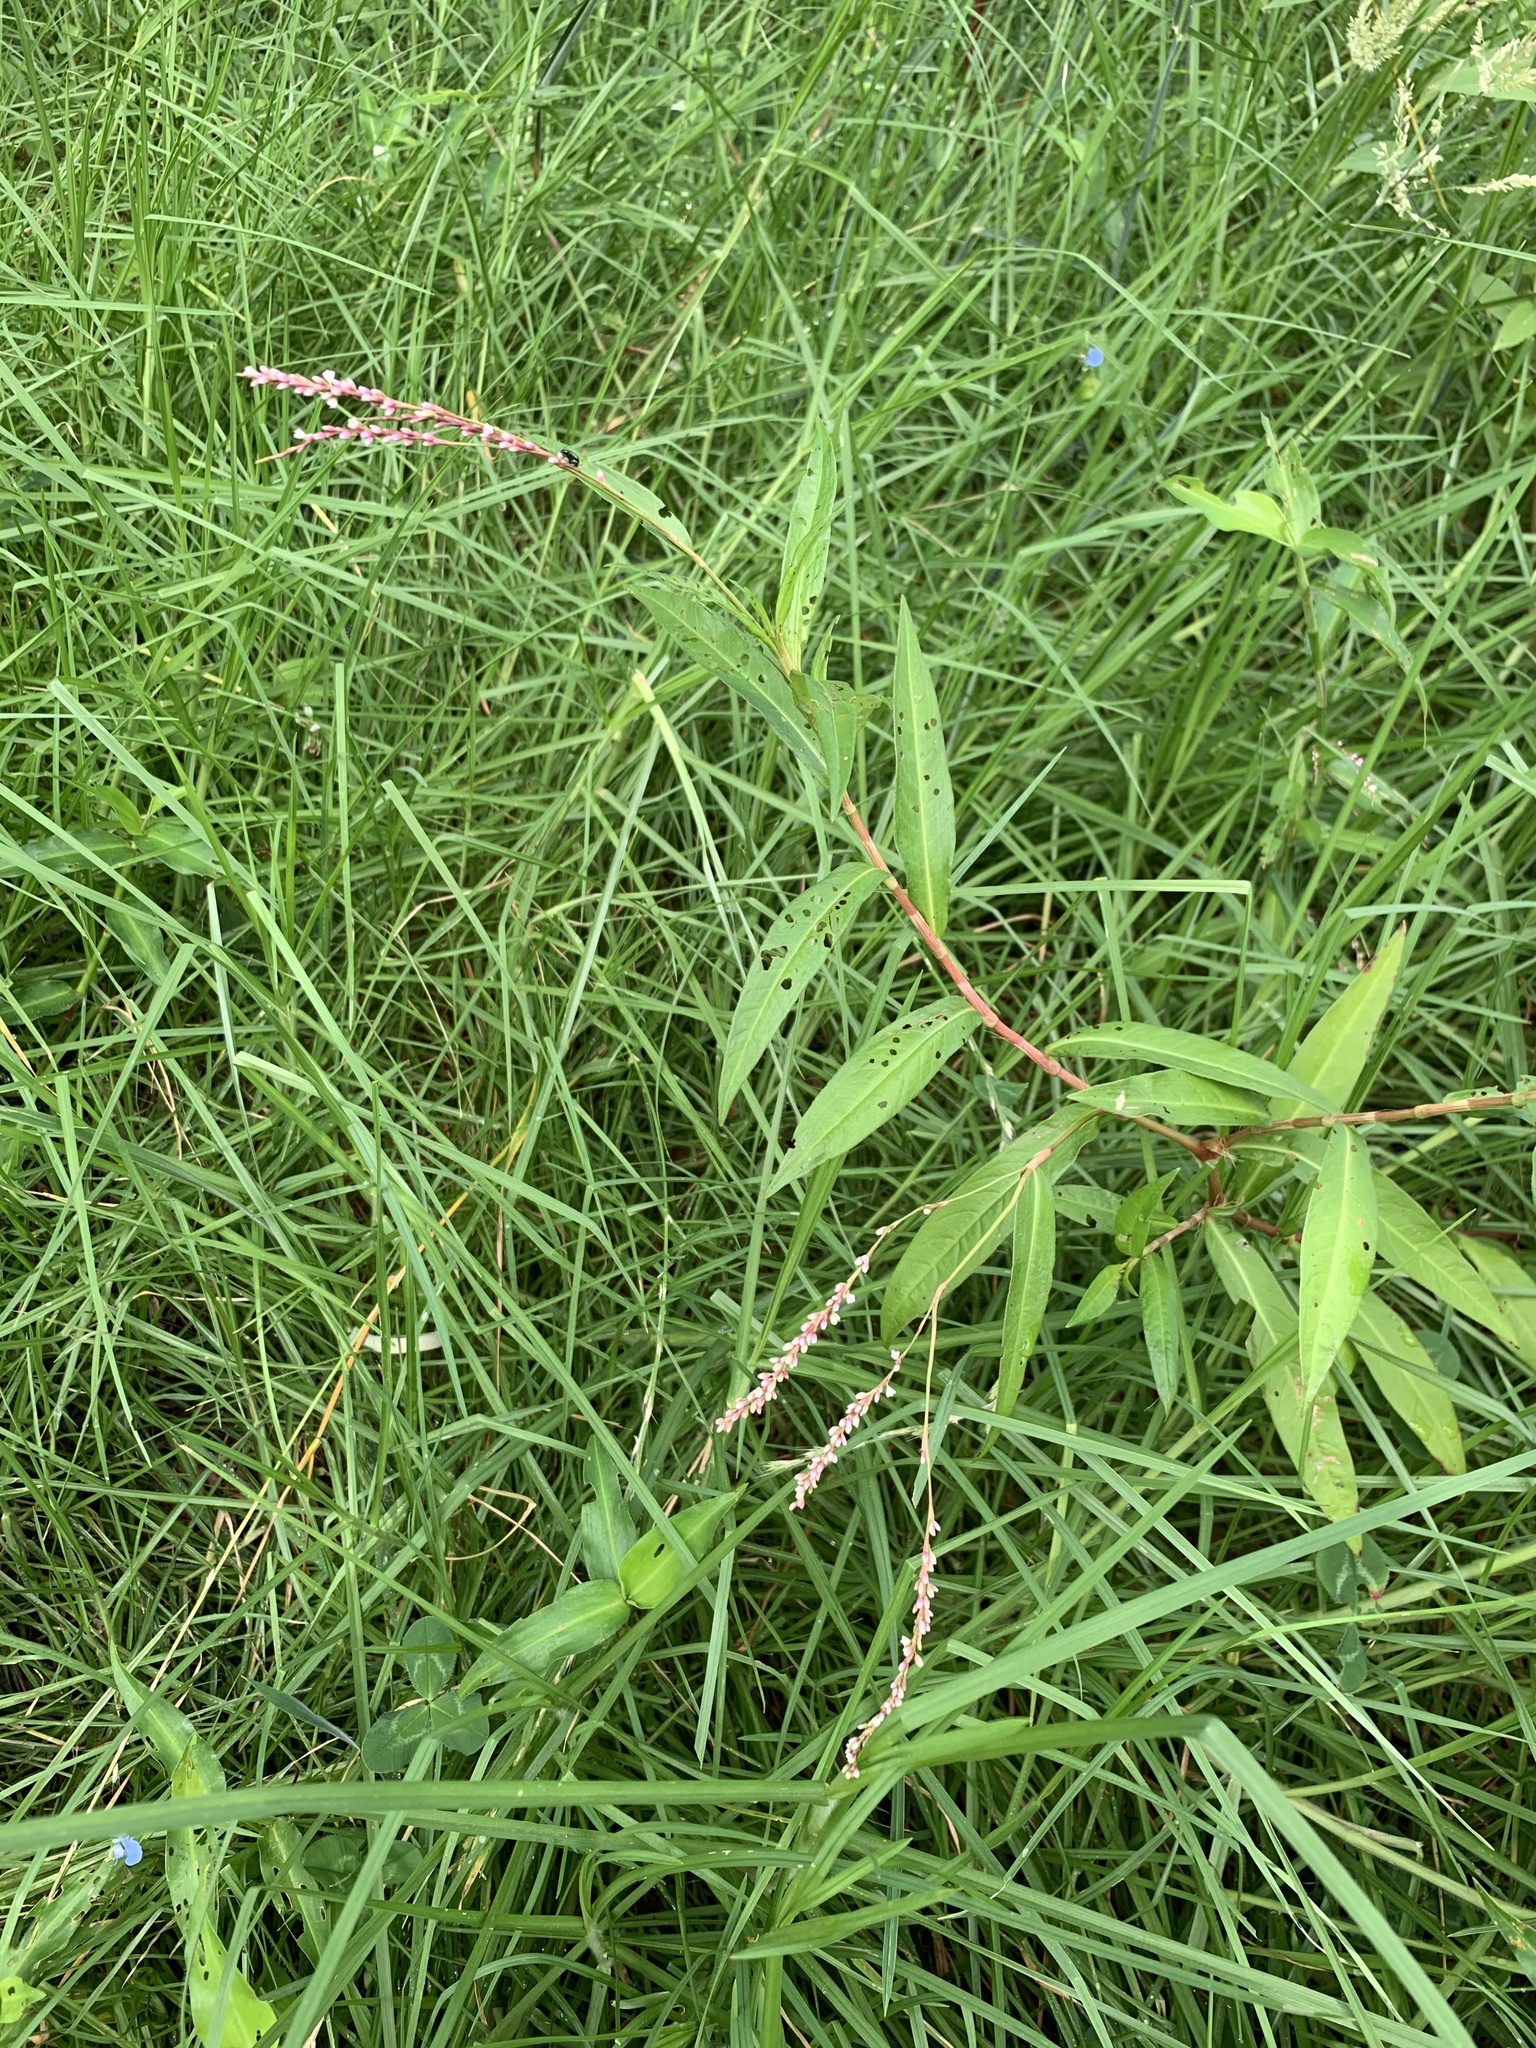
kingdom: Plantae
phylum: Tracheophyta
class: Magnoliopsida
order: Caryophyllales
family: Polygonaceae
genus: Persicaria
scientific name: Persicaria decipiens
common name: Willow-weed
